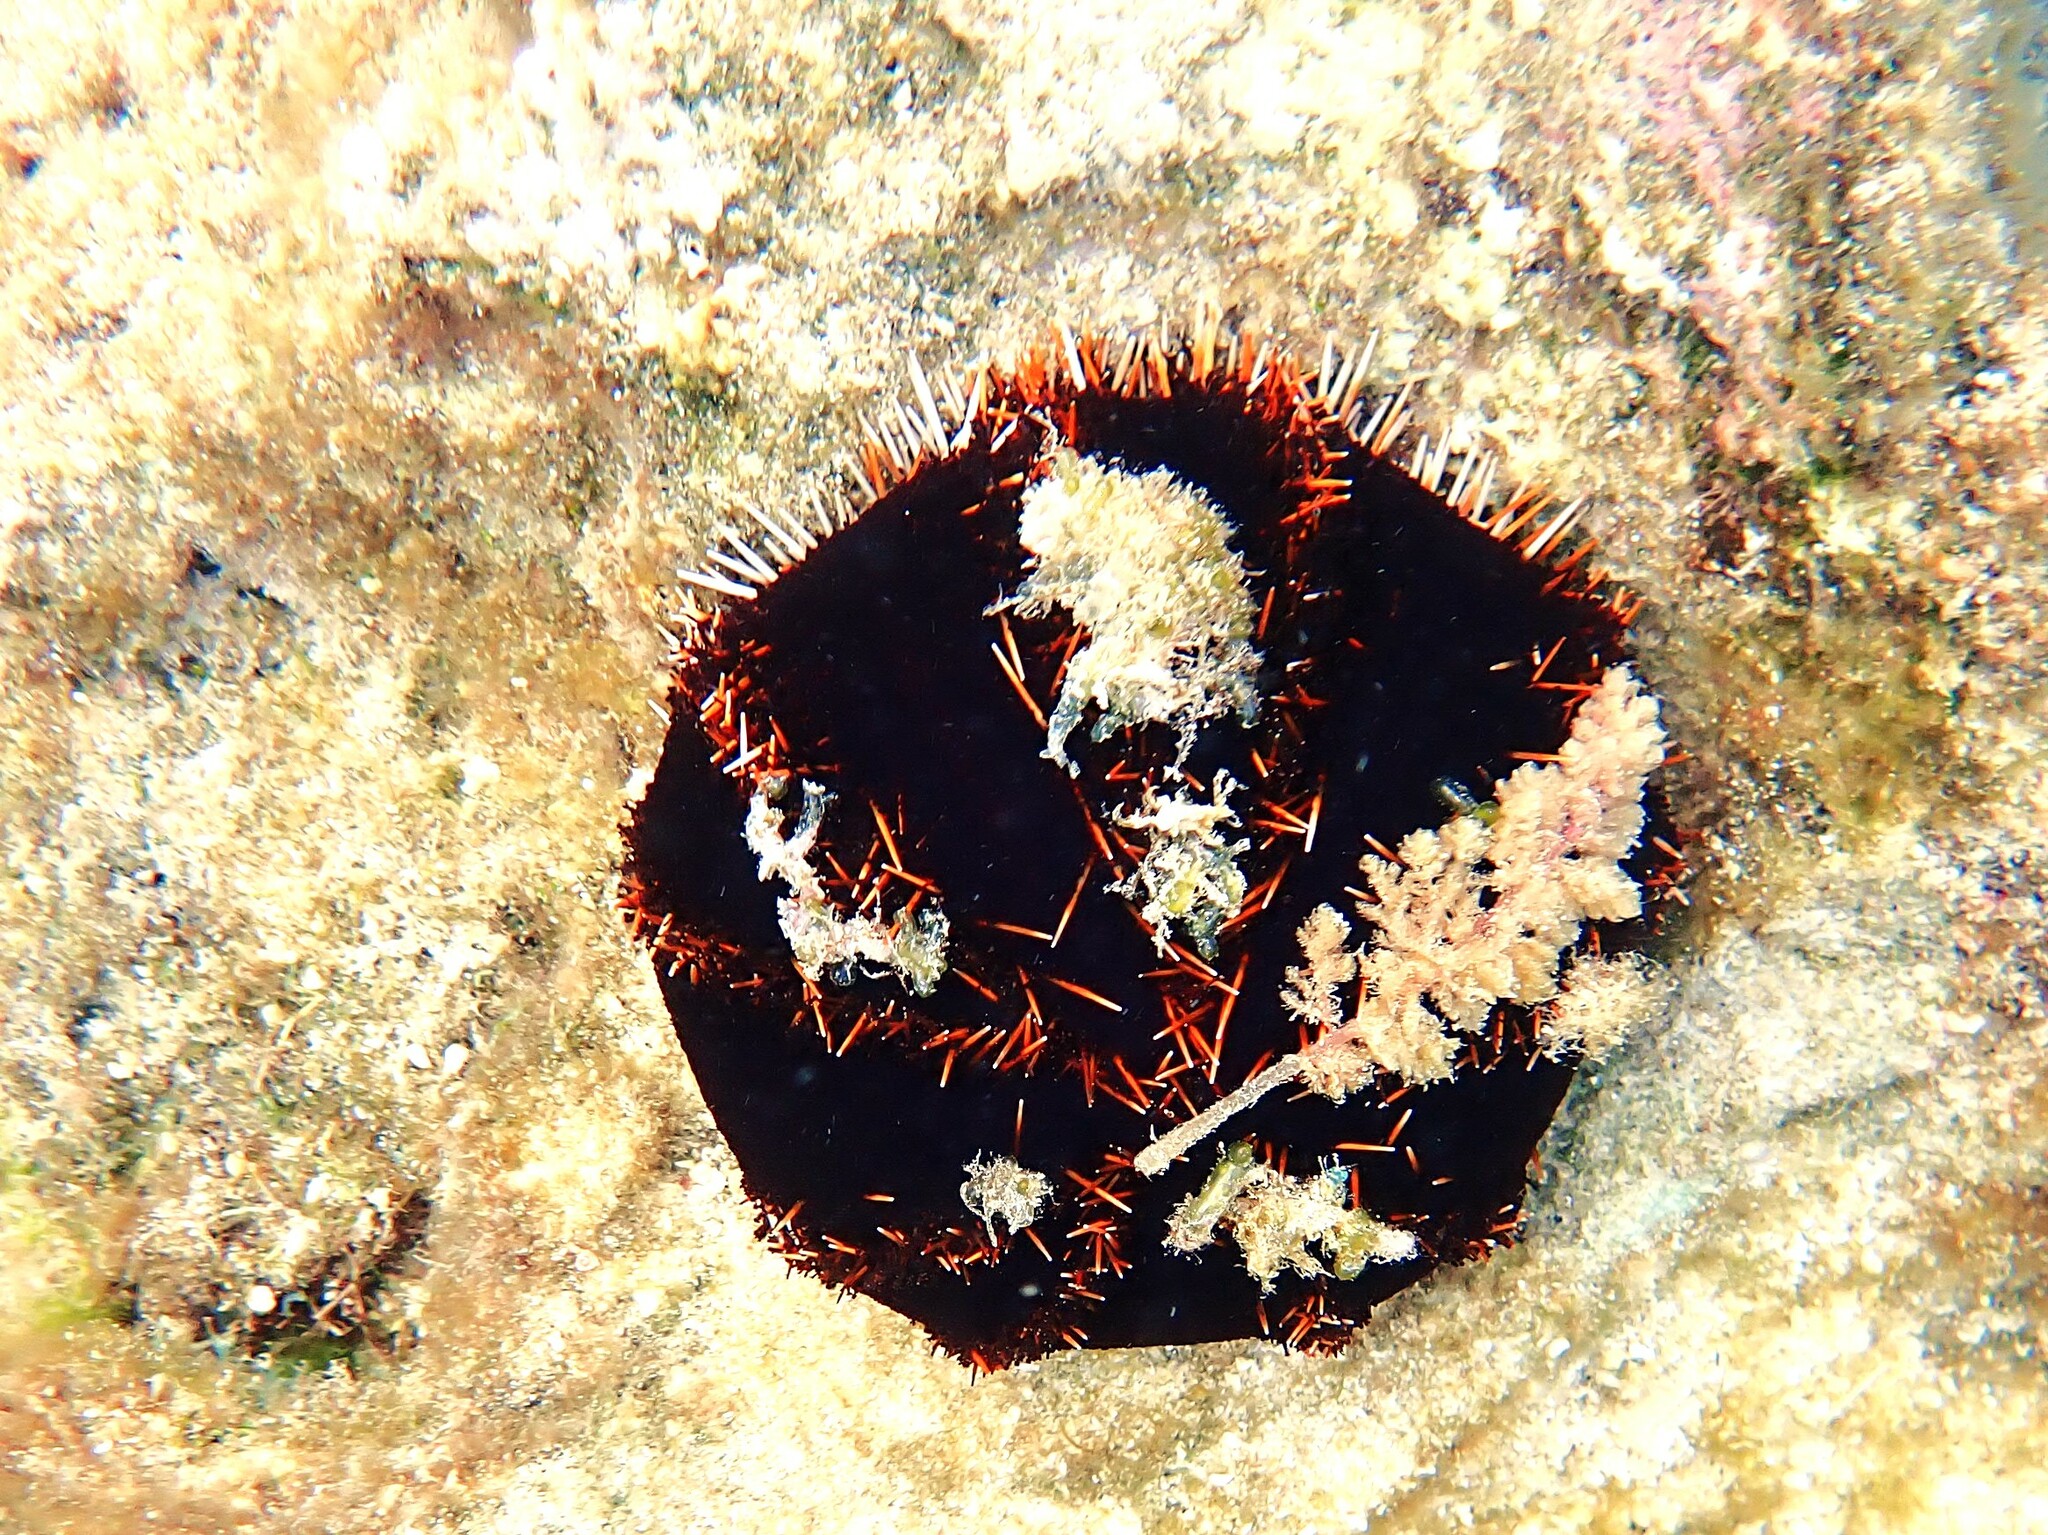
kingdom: Animalia
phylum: Echinodermata
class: Echinoidea
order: Camarodonta
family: Toxopneustidae
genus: Tripneustes
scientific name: Tripneustes gratilla
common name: Bischofsmützenseeigel
